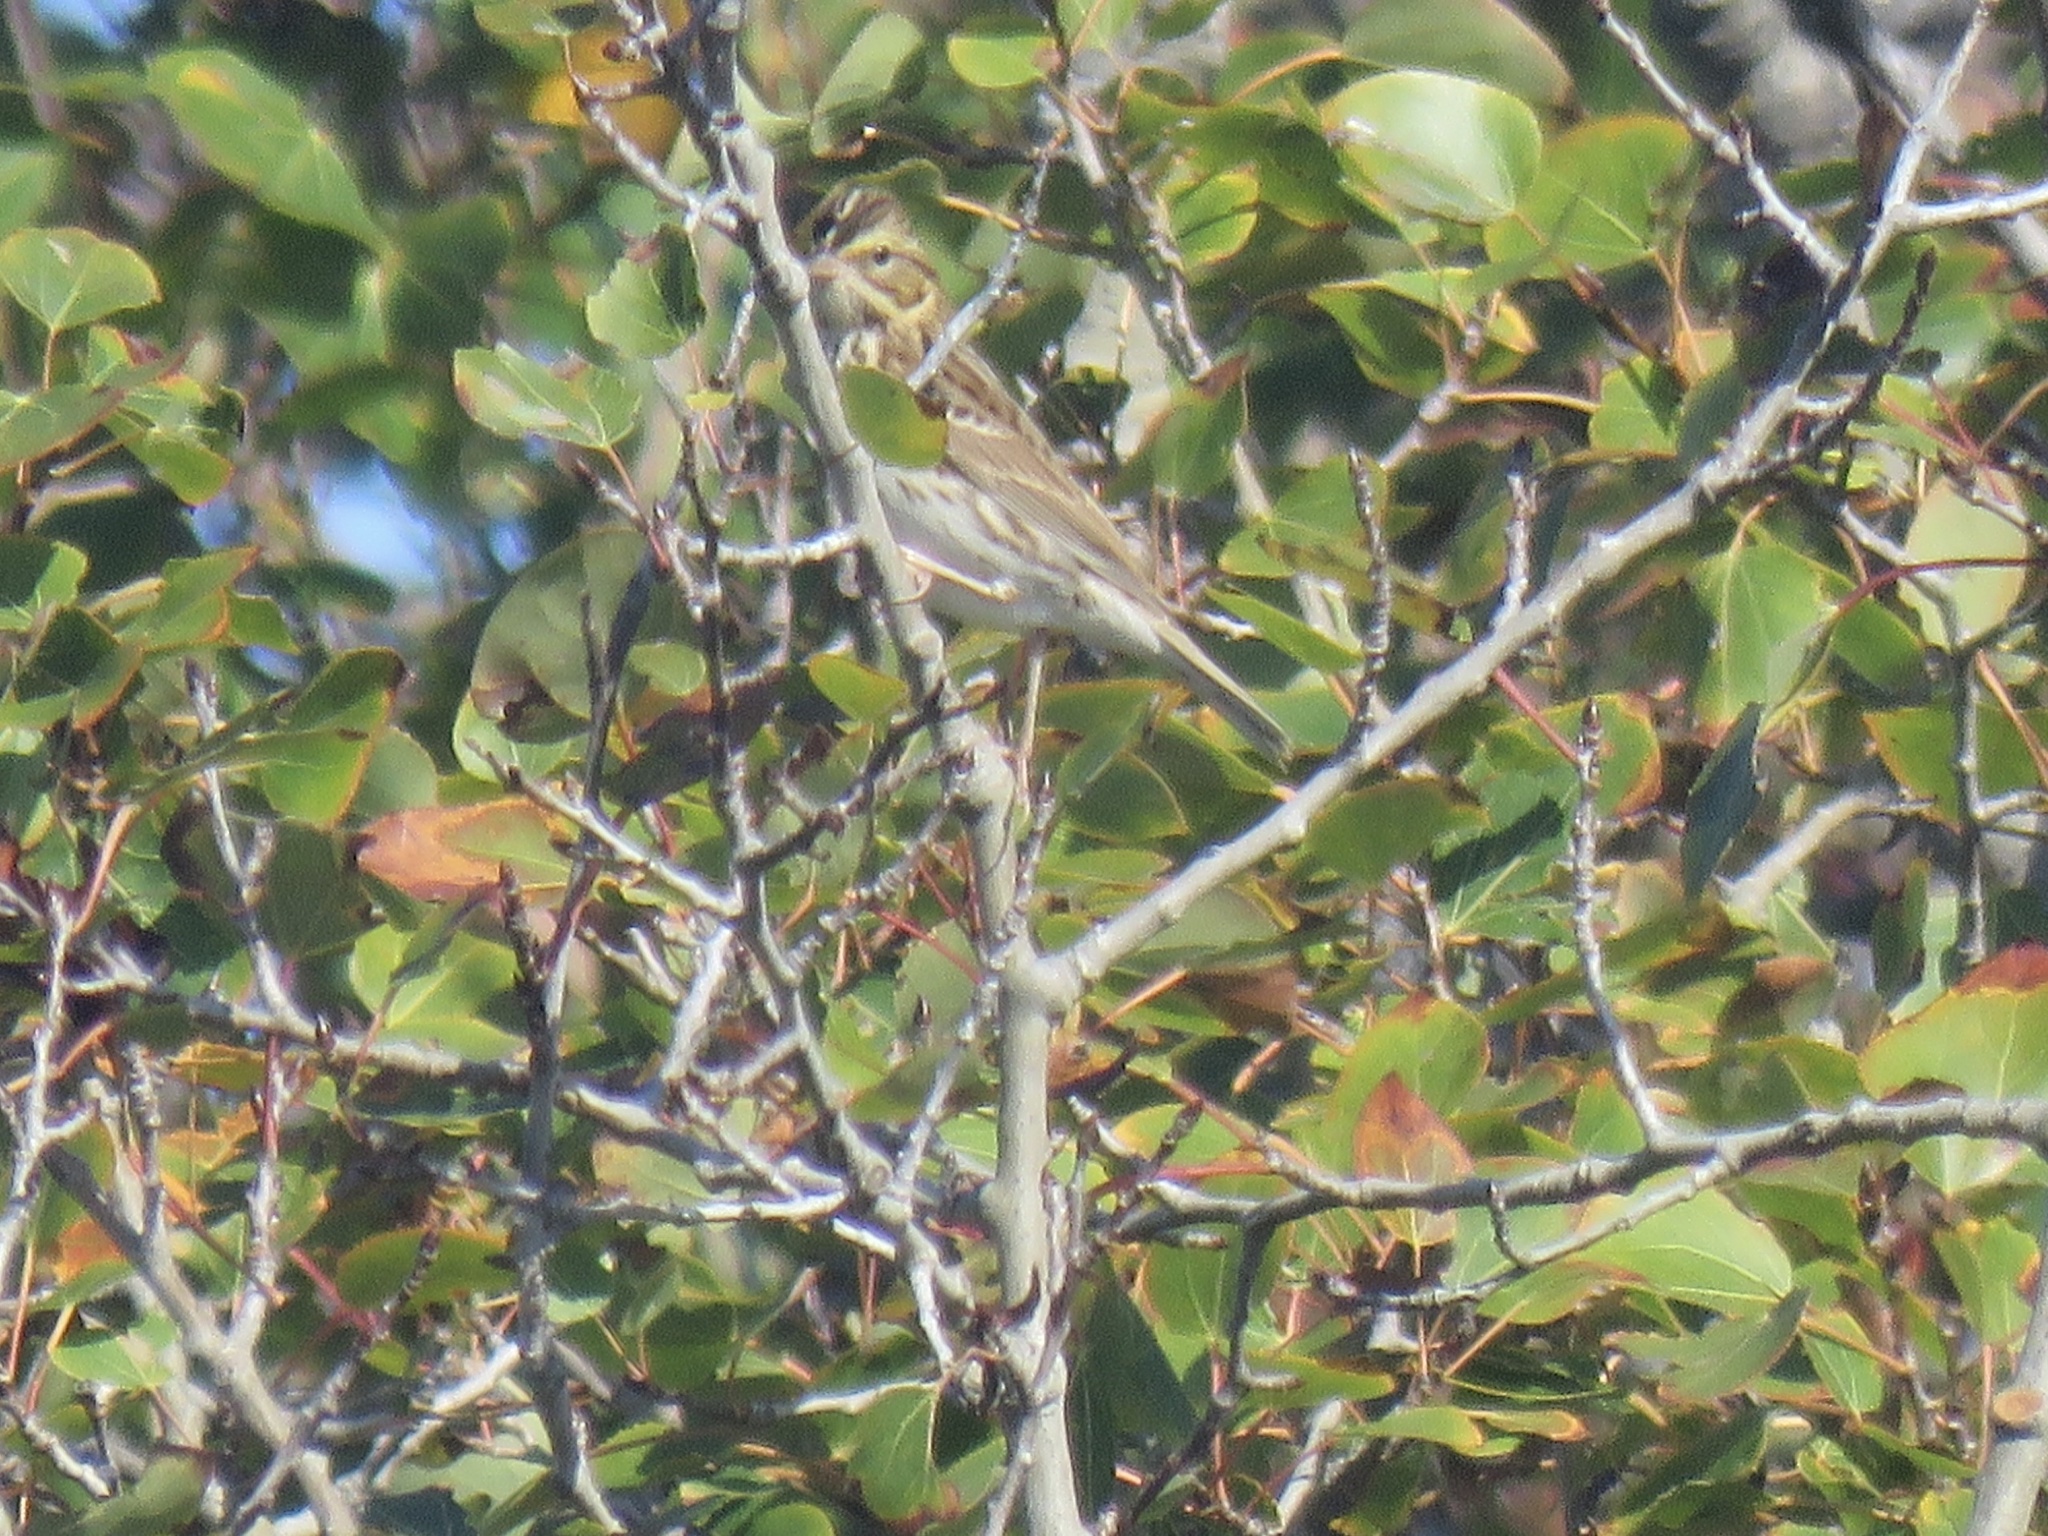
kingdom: Animalia
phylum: Chordata
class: Aves
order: Passeriformes
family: Passerellidae
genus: Passerculus
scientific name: Passerculus sandwichensis
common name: Savannah sparrow
